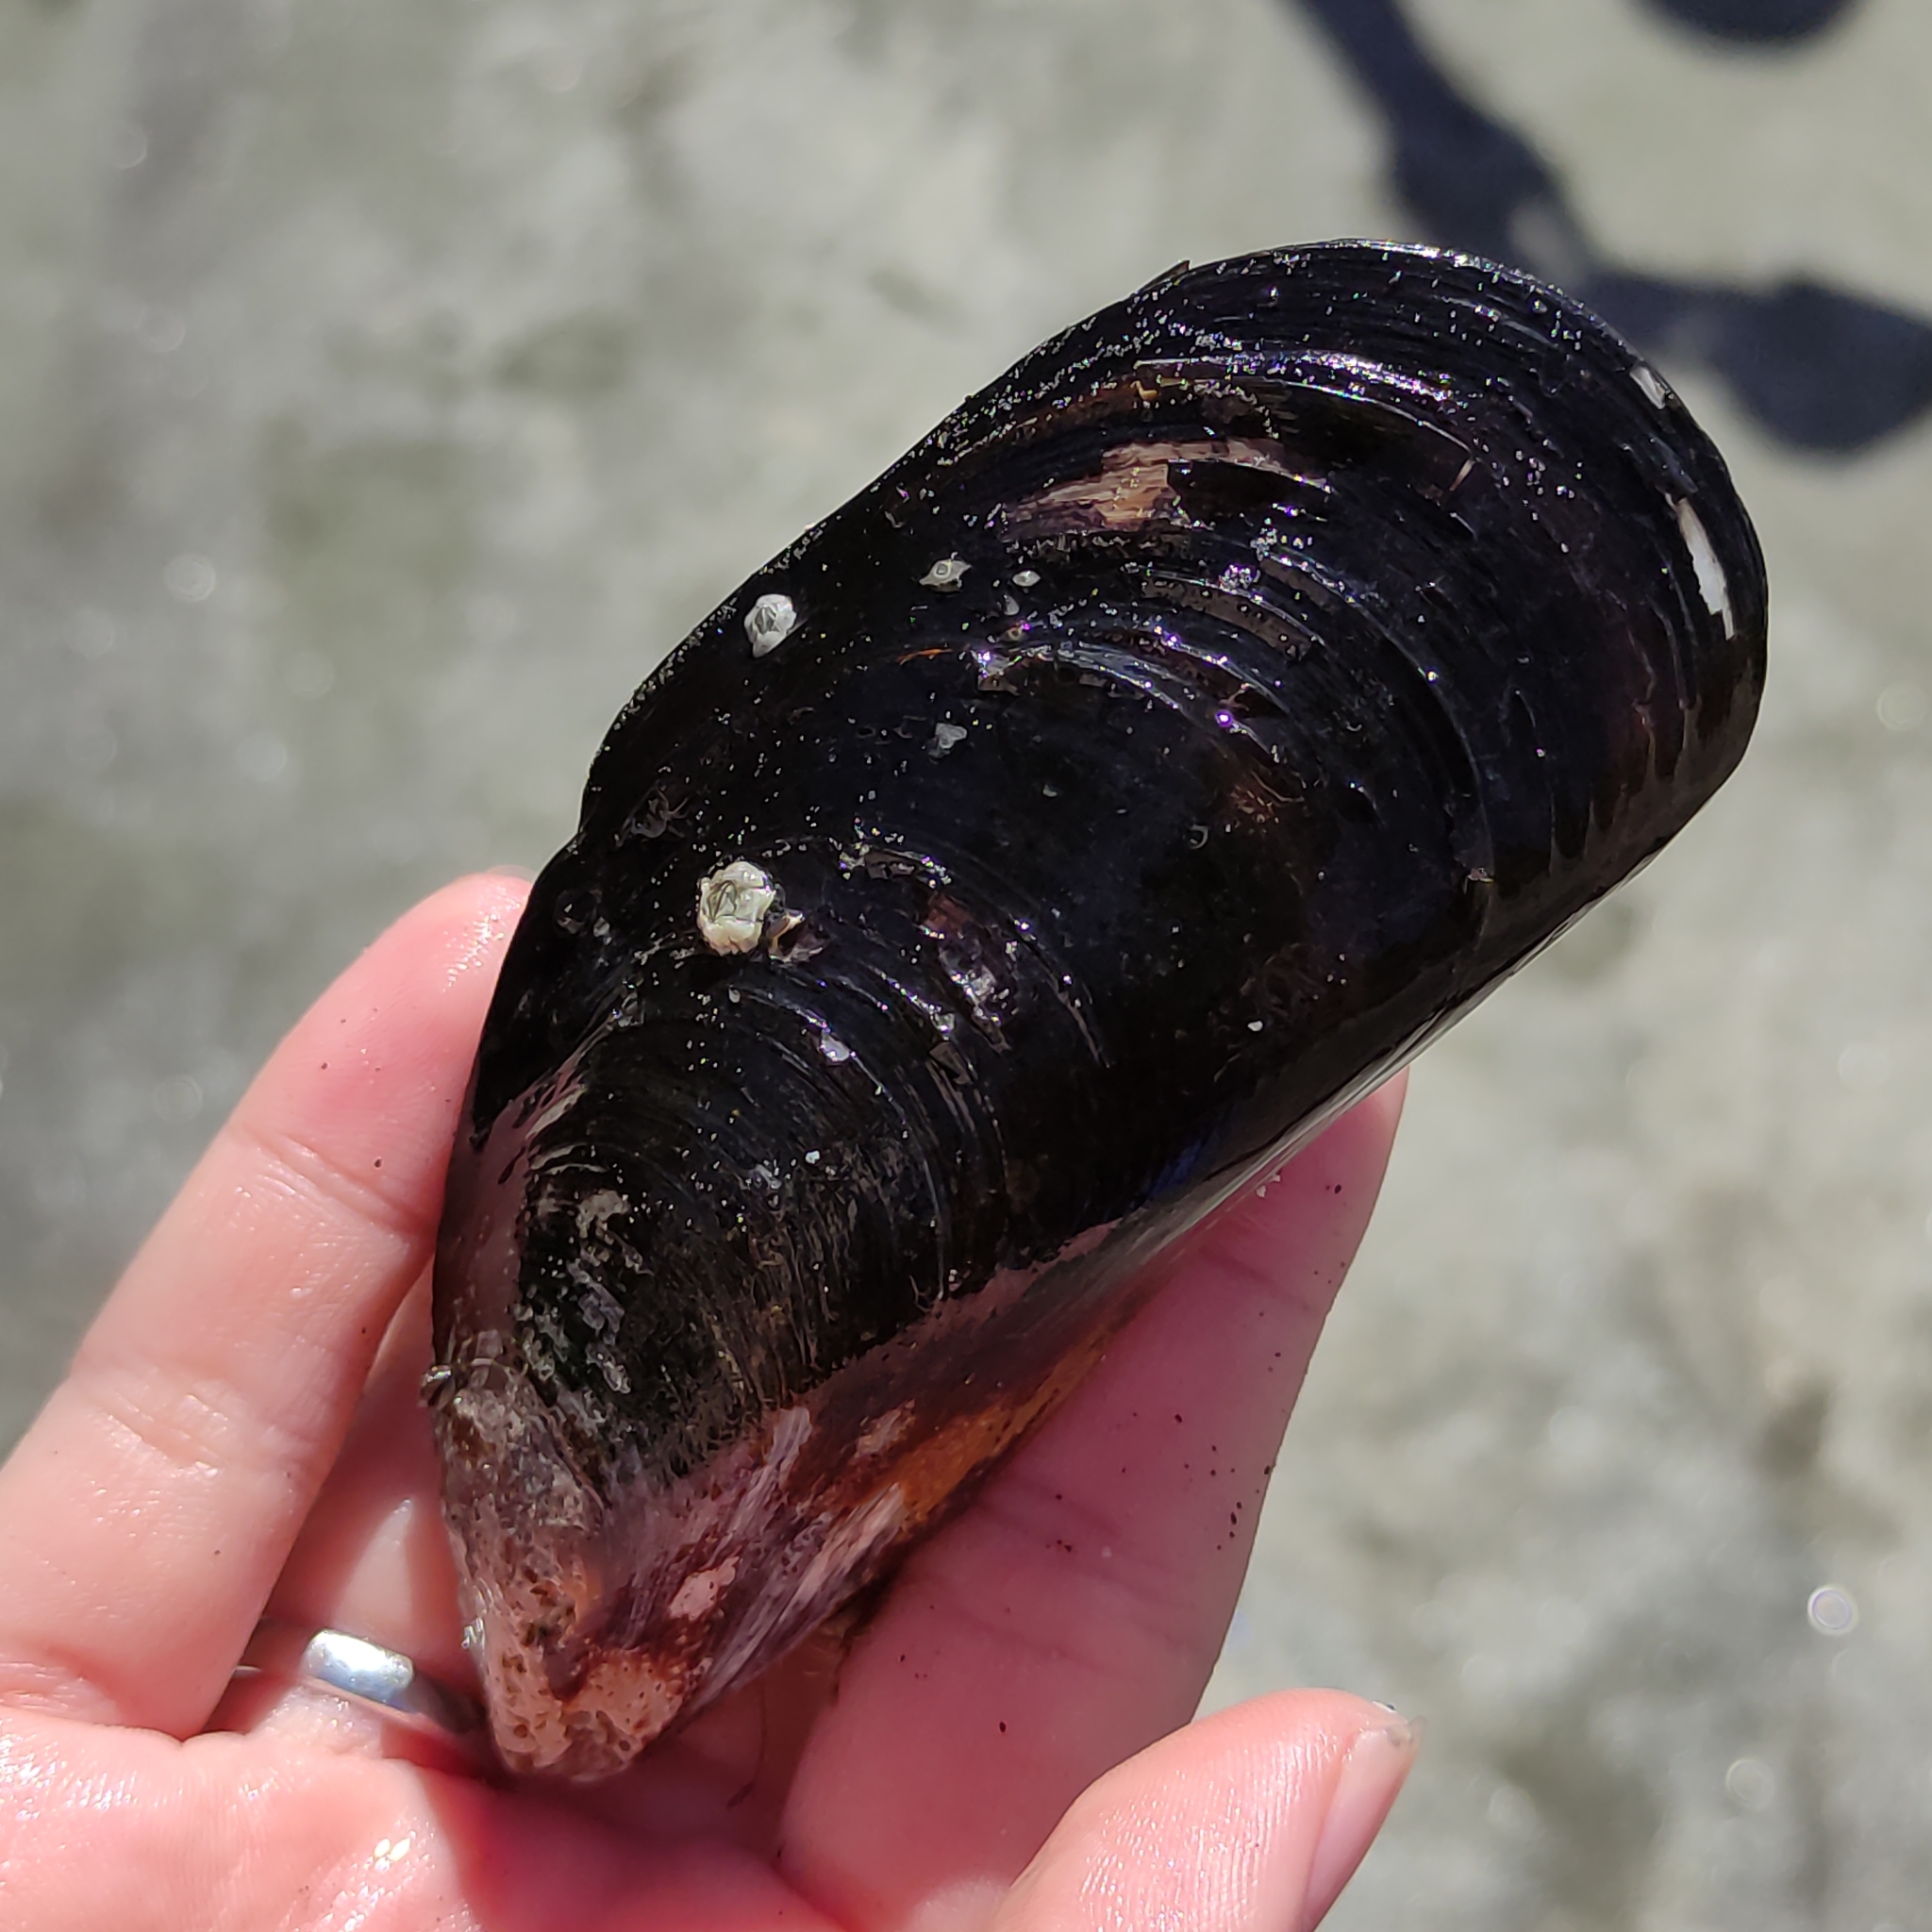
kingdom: Animalia
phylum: Mollusca
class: Bivalvia
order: Mytilida
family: Mytilidae
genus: Perna
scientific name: Perna canaliculus
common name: New zealand greenshelltm
